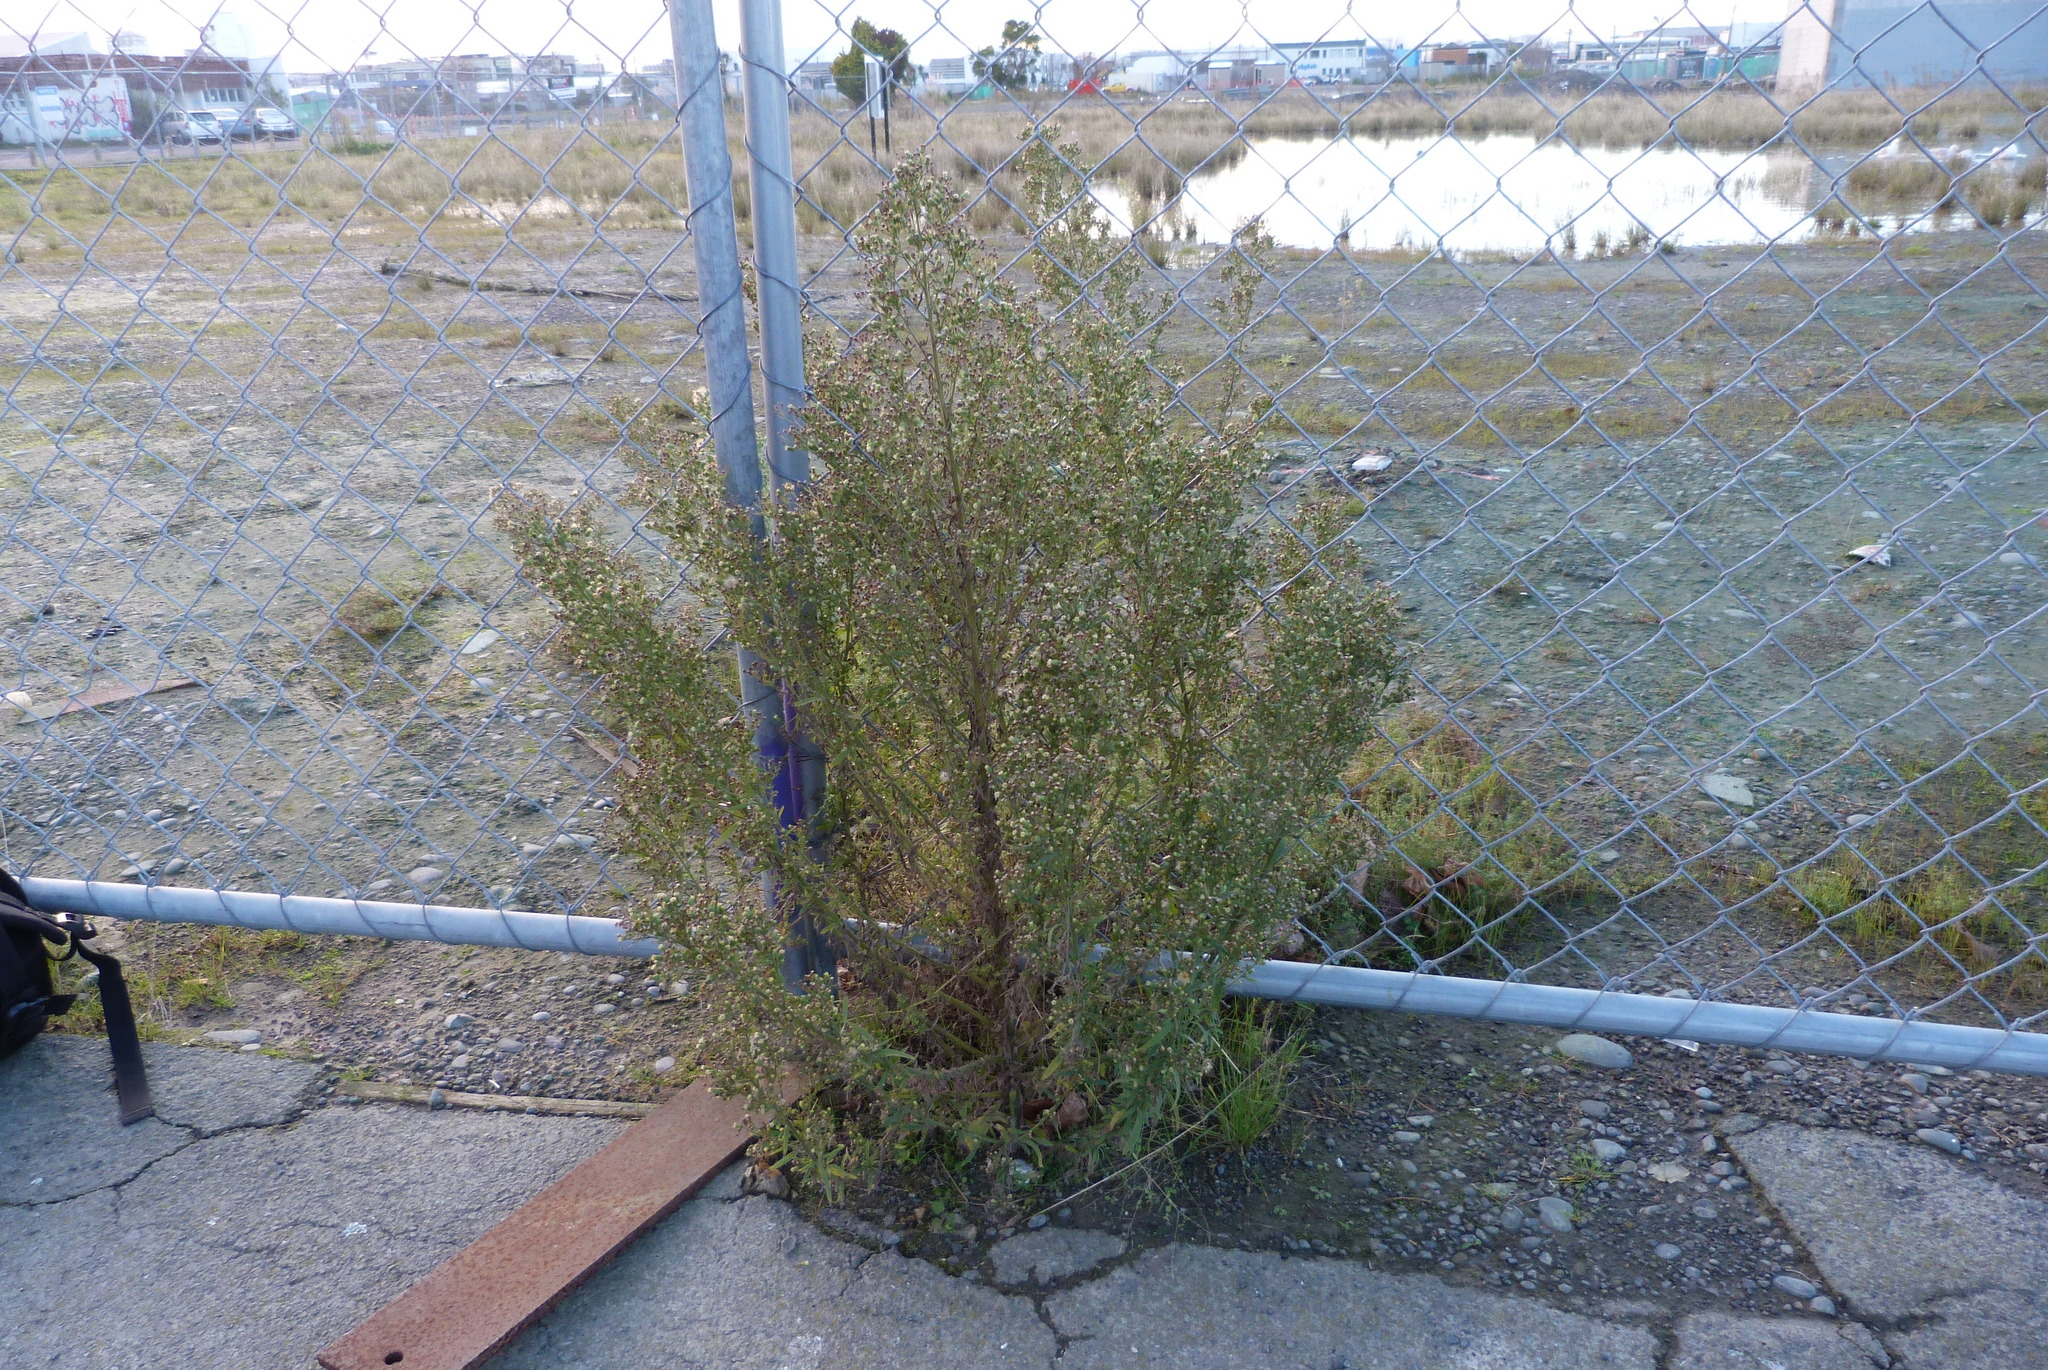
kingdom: Plantae
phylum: Tracheophyta
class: Magnoliopsida
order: Asterales
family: Asteraceae
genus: Erigeron
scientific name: Erigeron bonariensis
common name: Argentine fleabane
